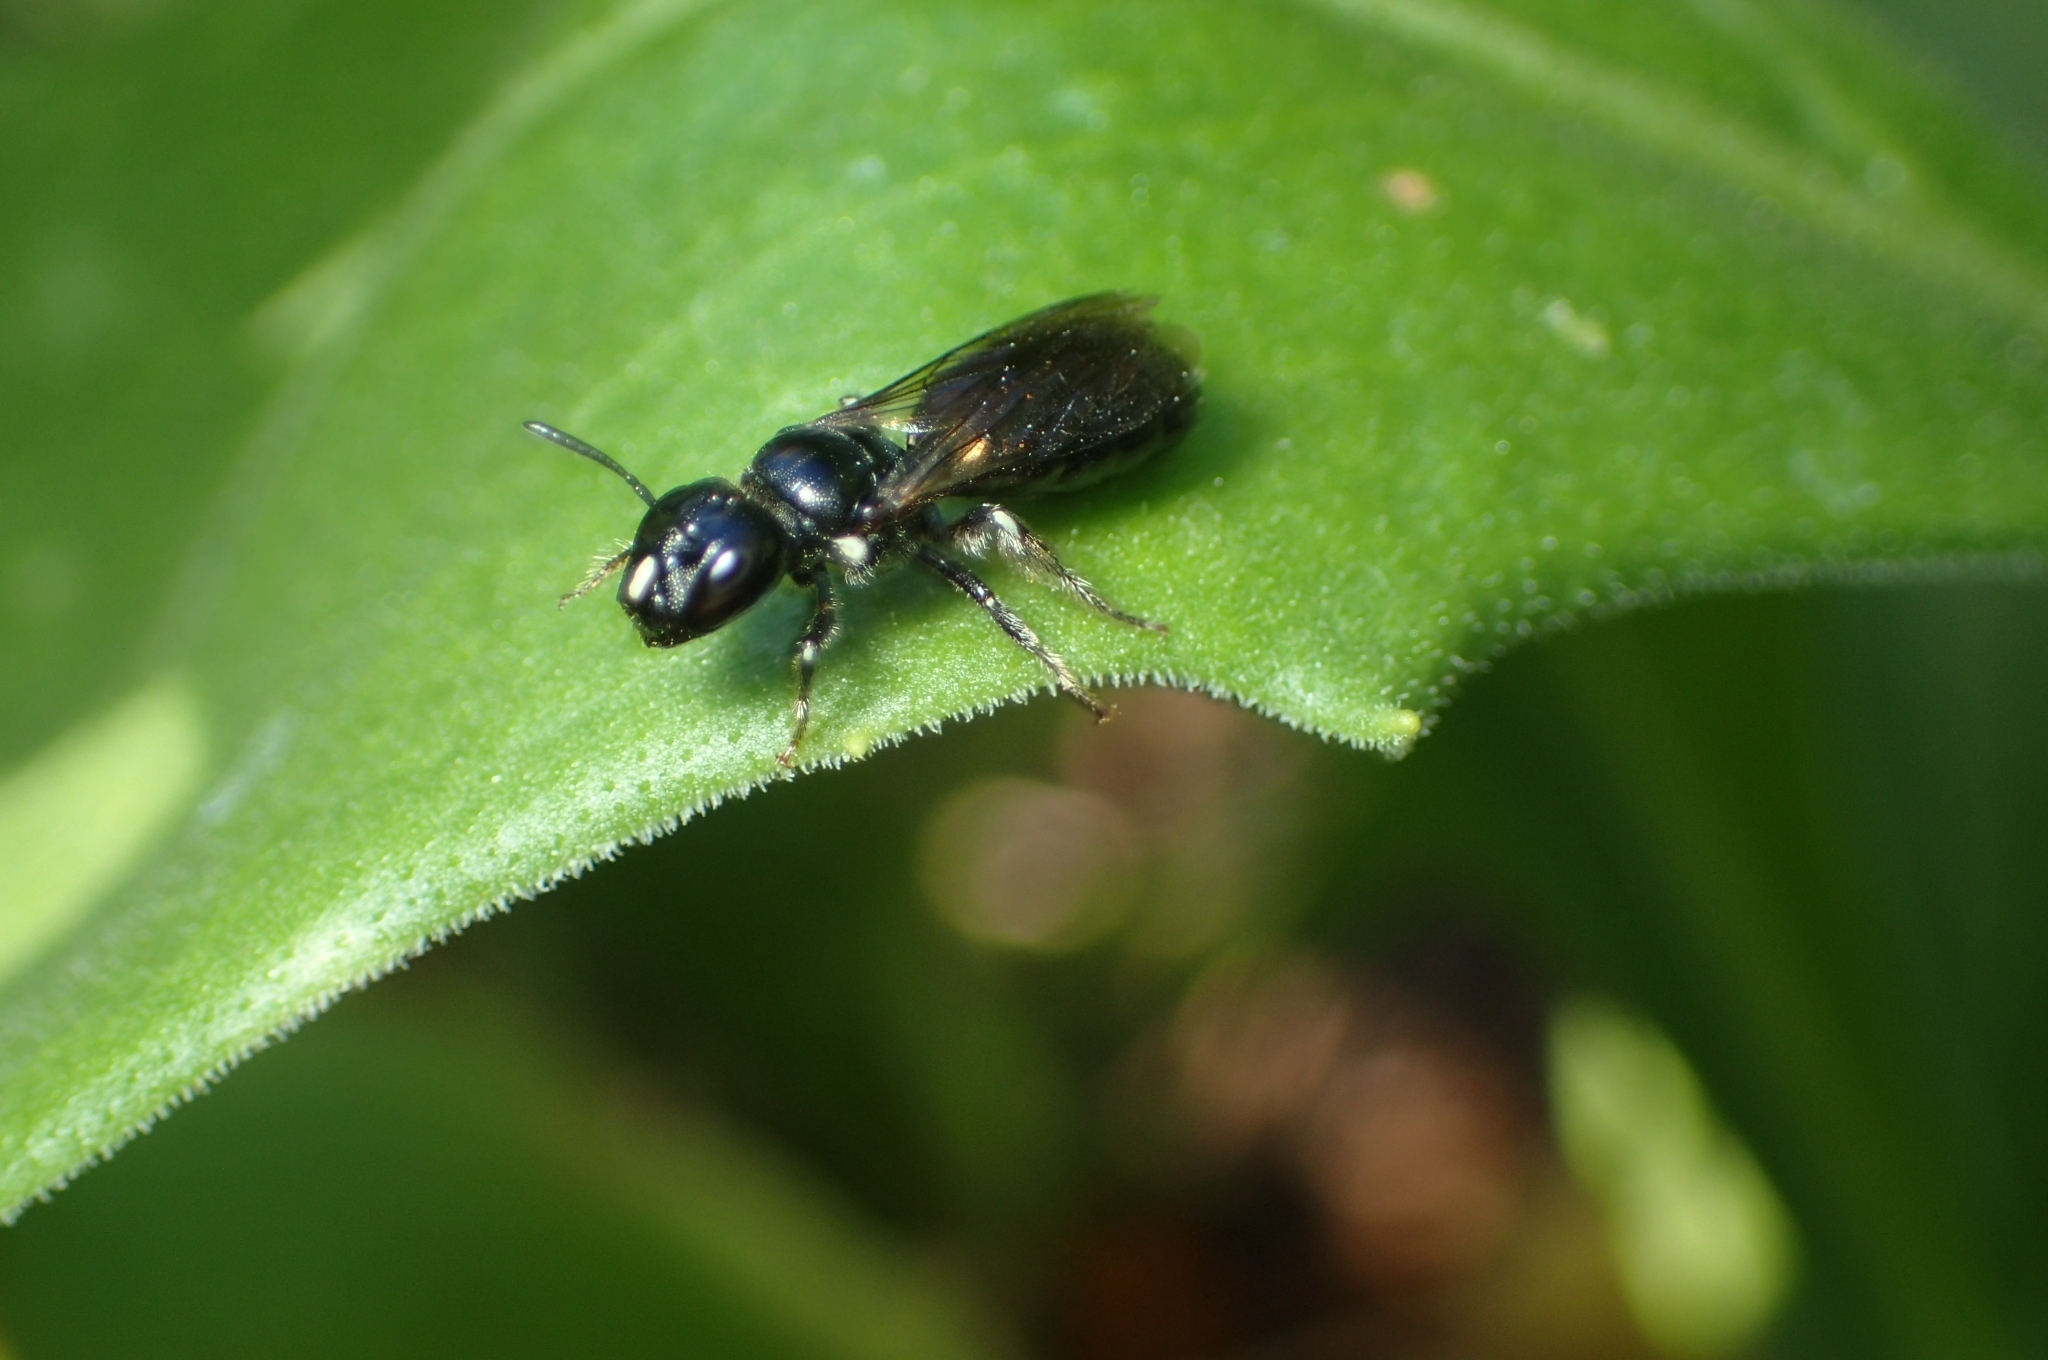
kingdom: Animalia
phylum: Arthropoda
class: Insecta
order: Hymenoptera
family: Apidae
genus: Ceratina
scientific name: Ceratina cucurbitina
